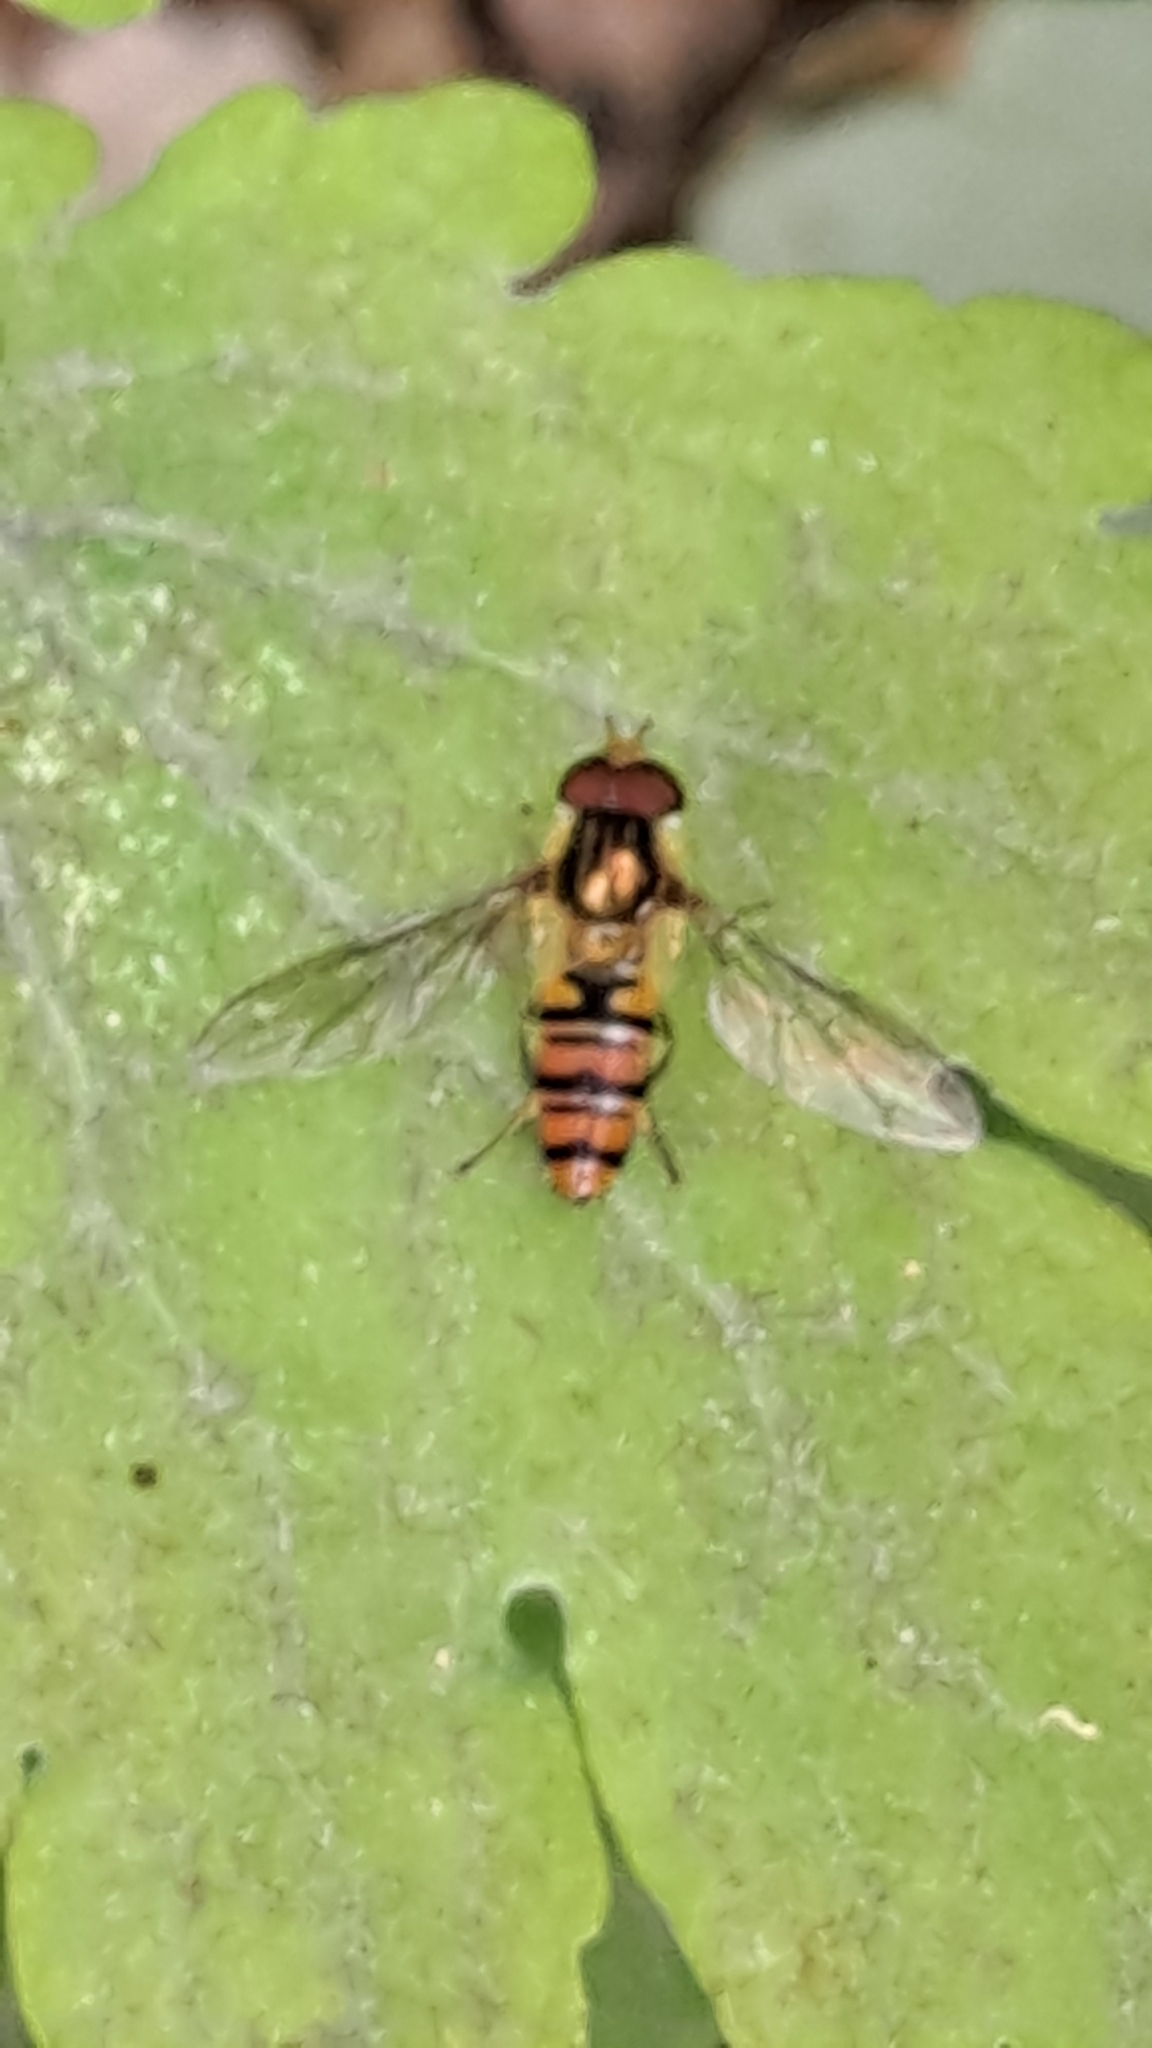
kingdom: Animalia
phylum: Arthropoda
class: Insecta
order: Diptera
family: Syrphidae
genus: Episyrphus
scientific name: Episyrphus balteatus
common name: Marmalade hoverfly
